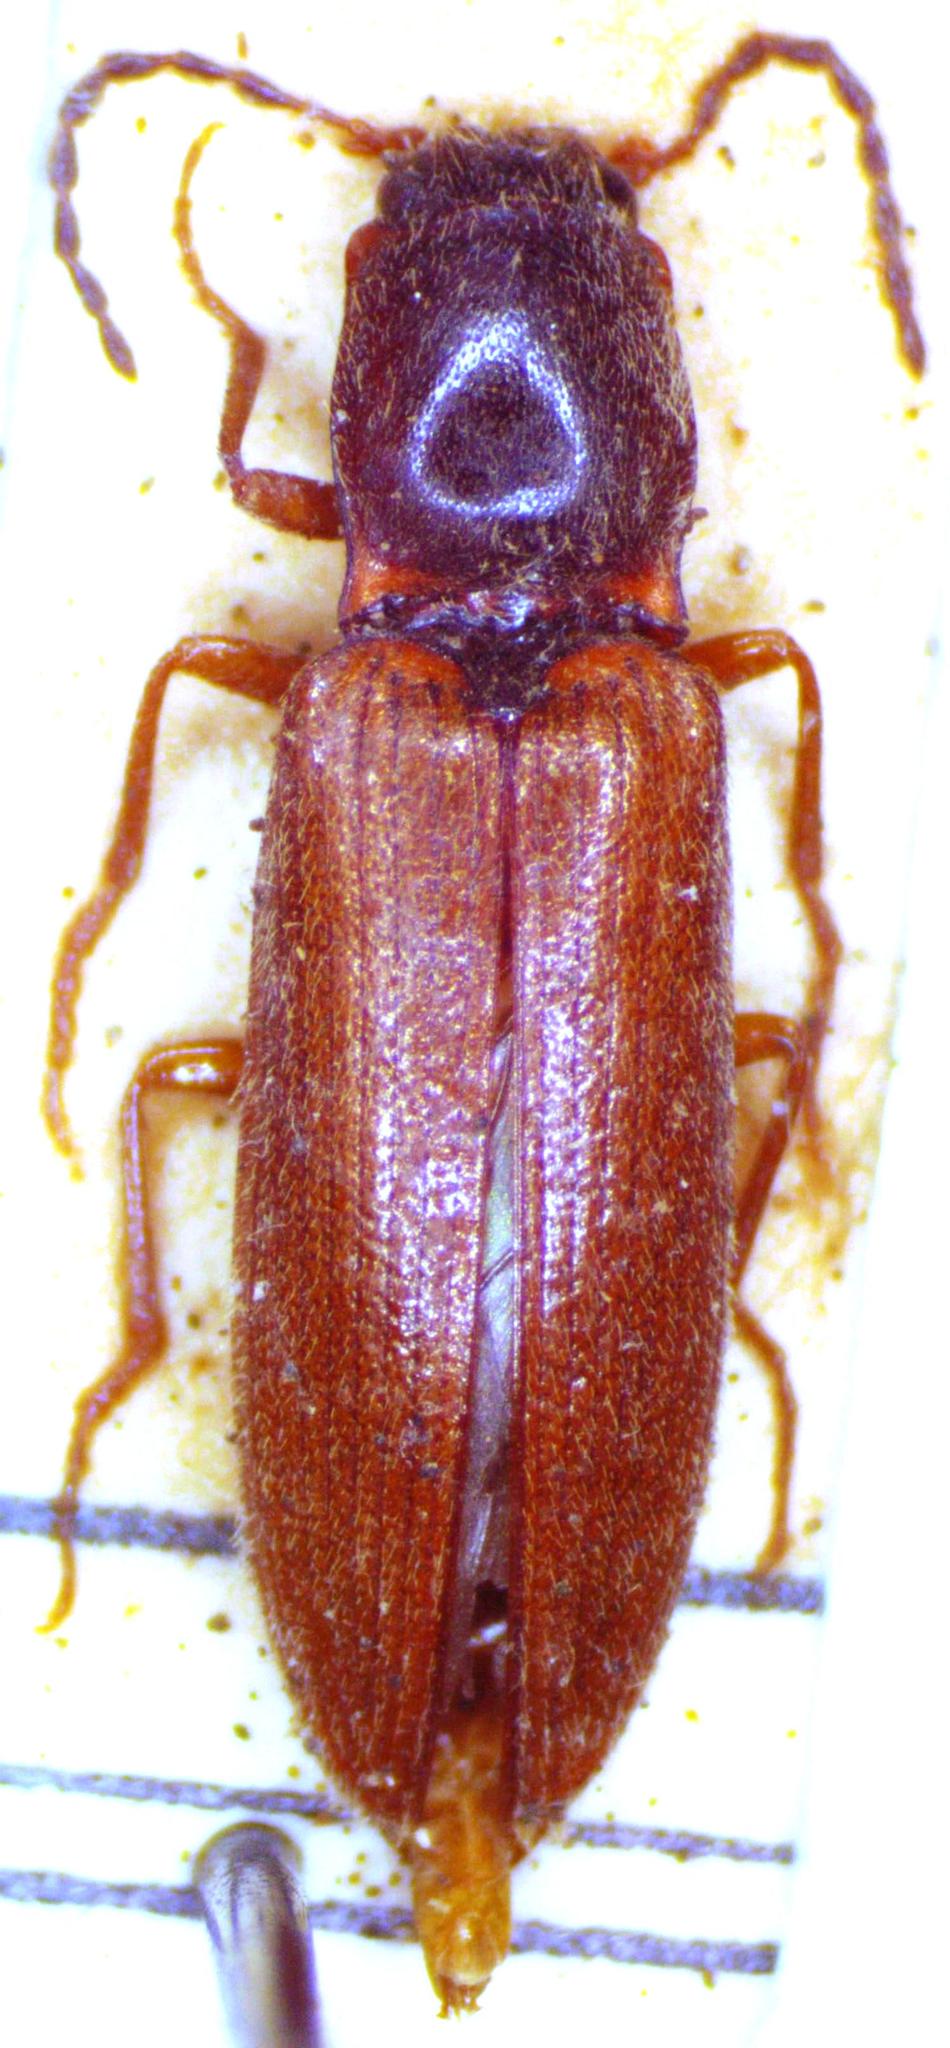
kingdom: Animalia
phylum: Arthropoda
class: Insecta
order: Coleoptera
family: Elateridae
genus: Athous
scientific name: Athous subfuscus
